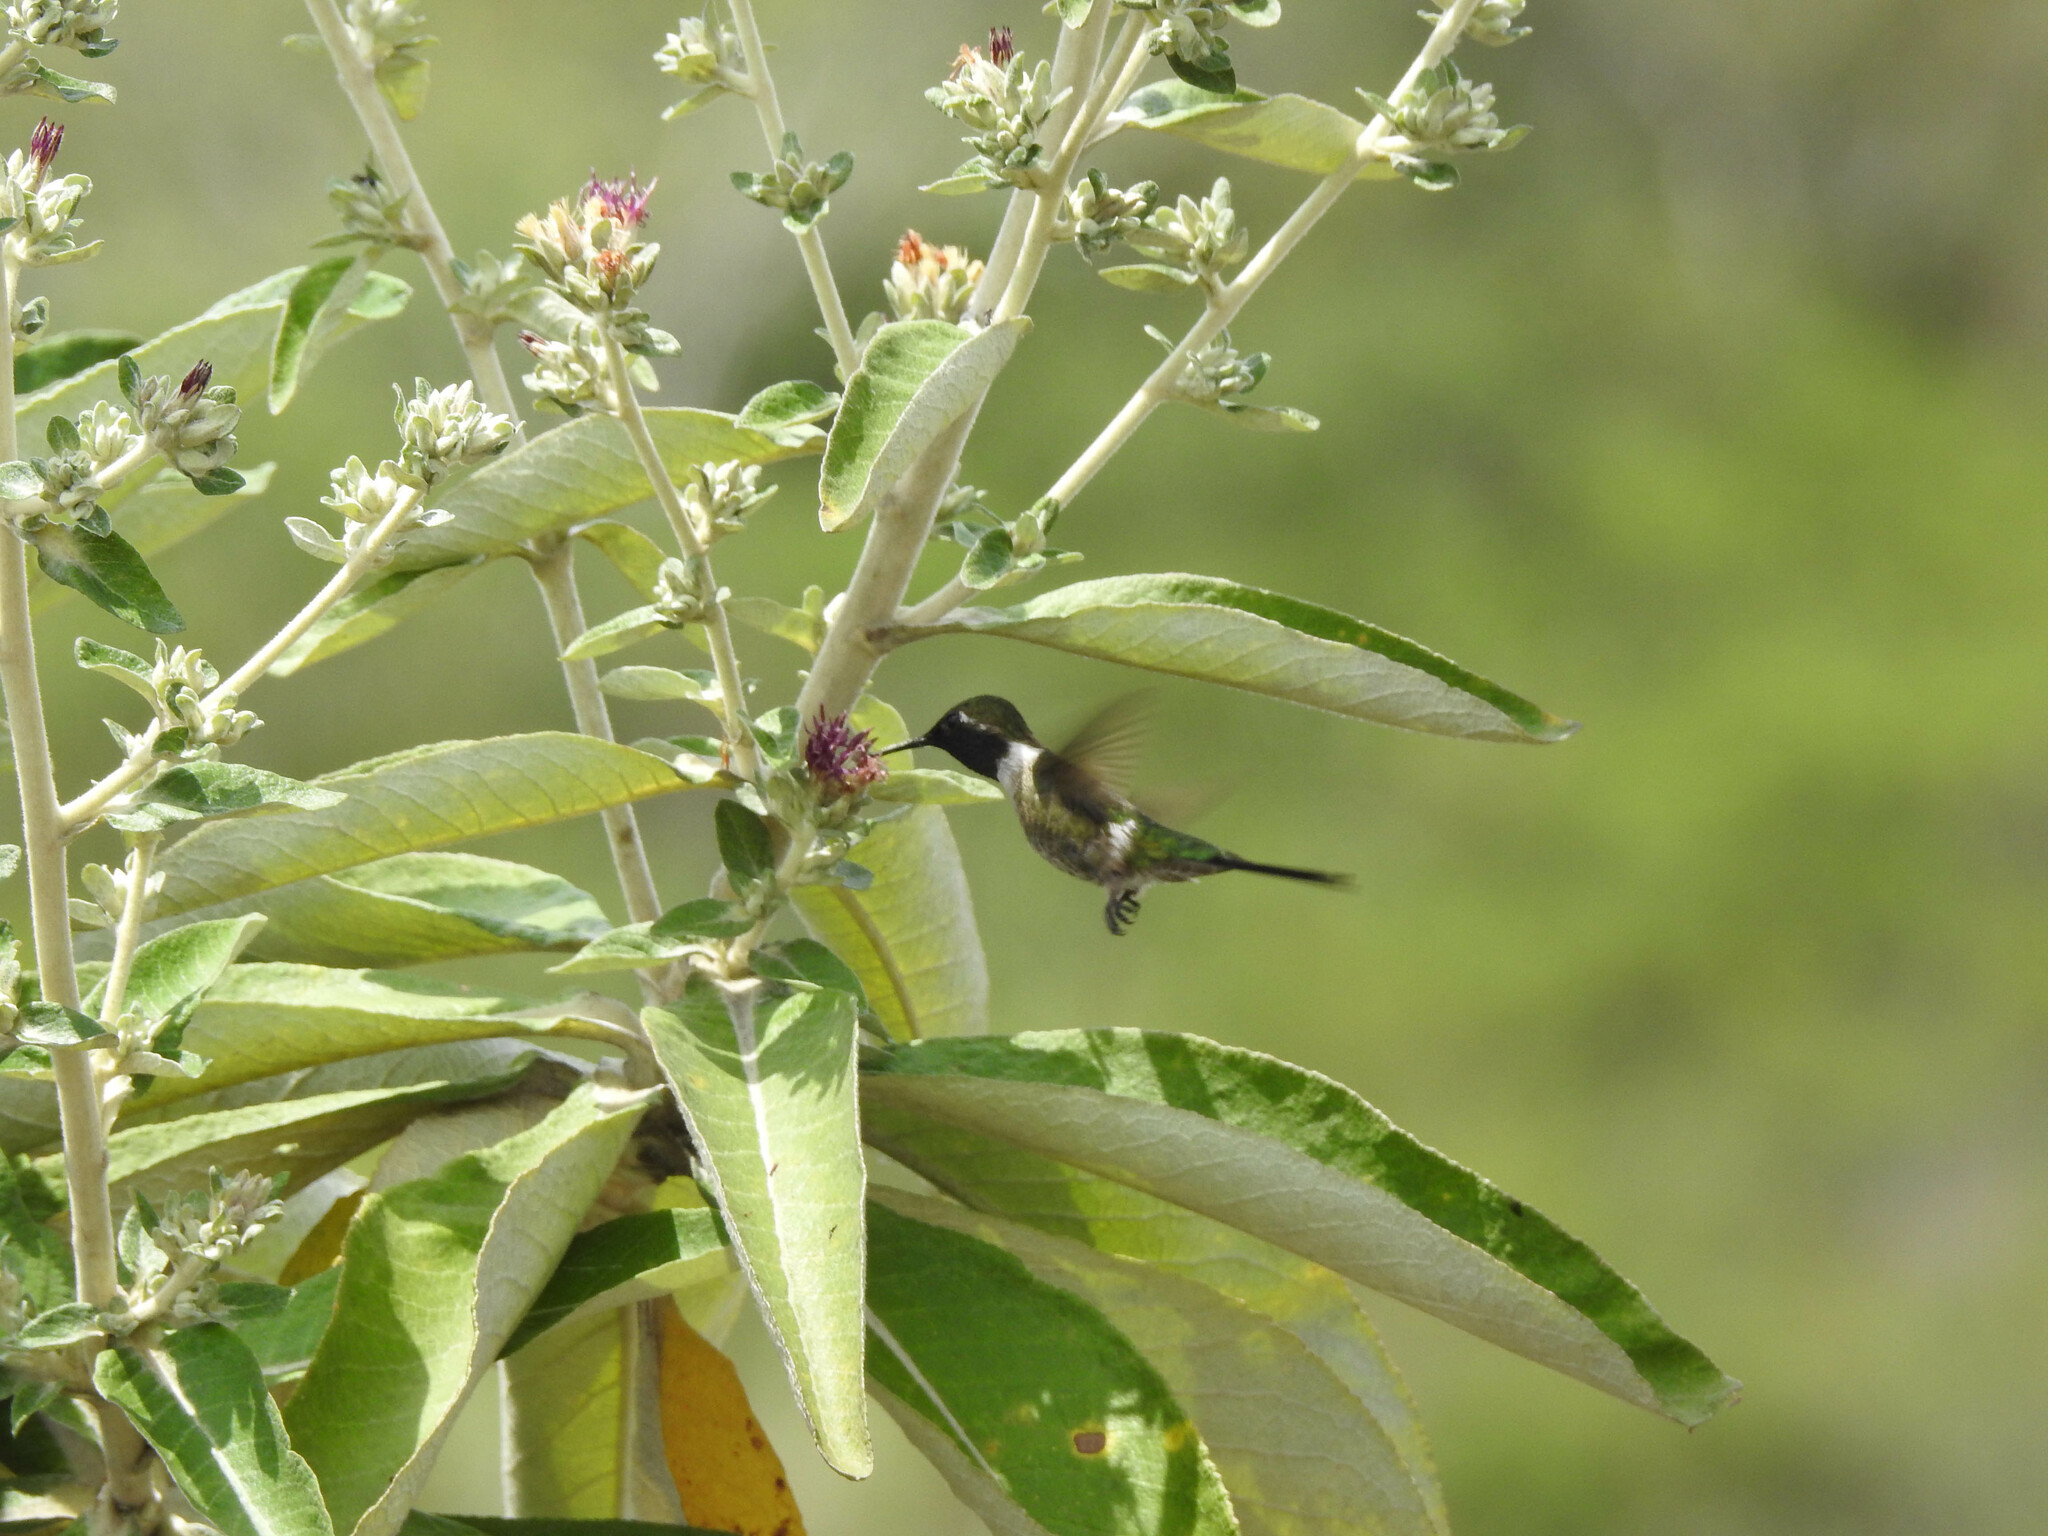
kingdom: Animalia
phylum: Chordata
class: Aves
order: Apodiformes
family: Trochilidae
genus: Calliphlox
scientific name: Calliphlox amethystina
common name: Amethyst woodstar
